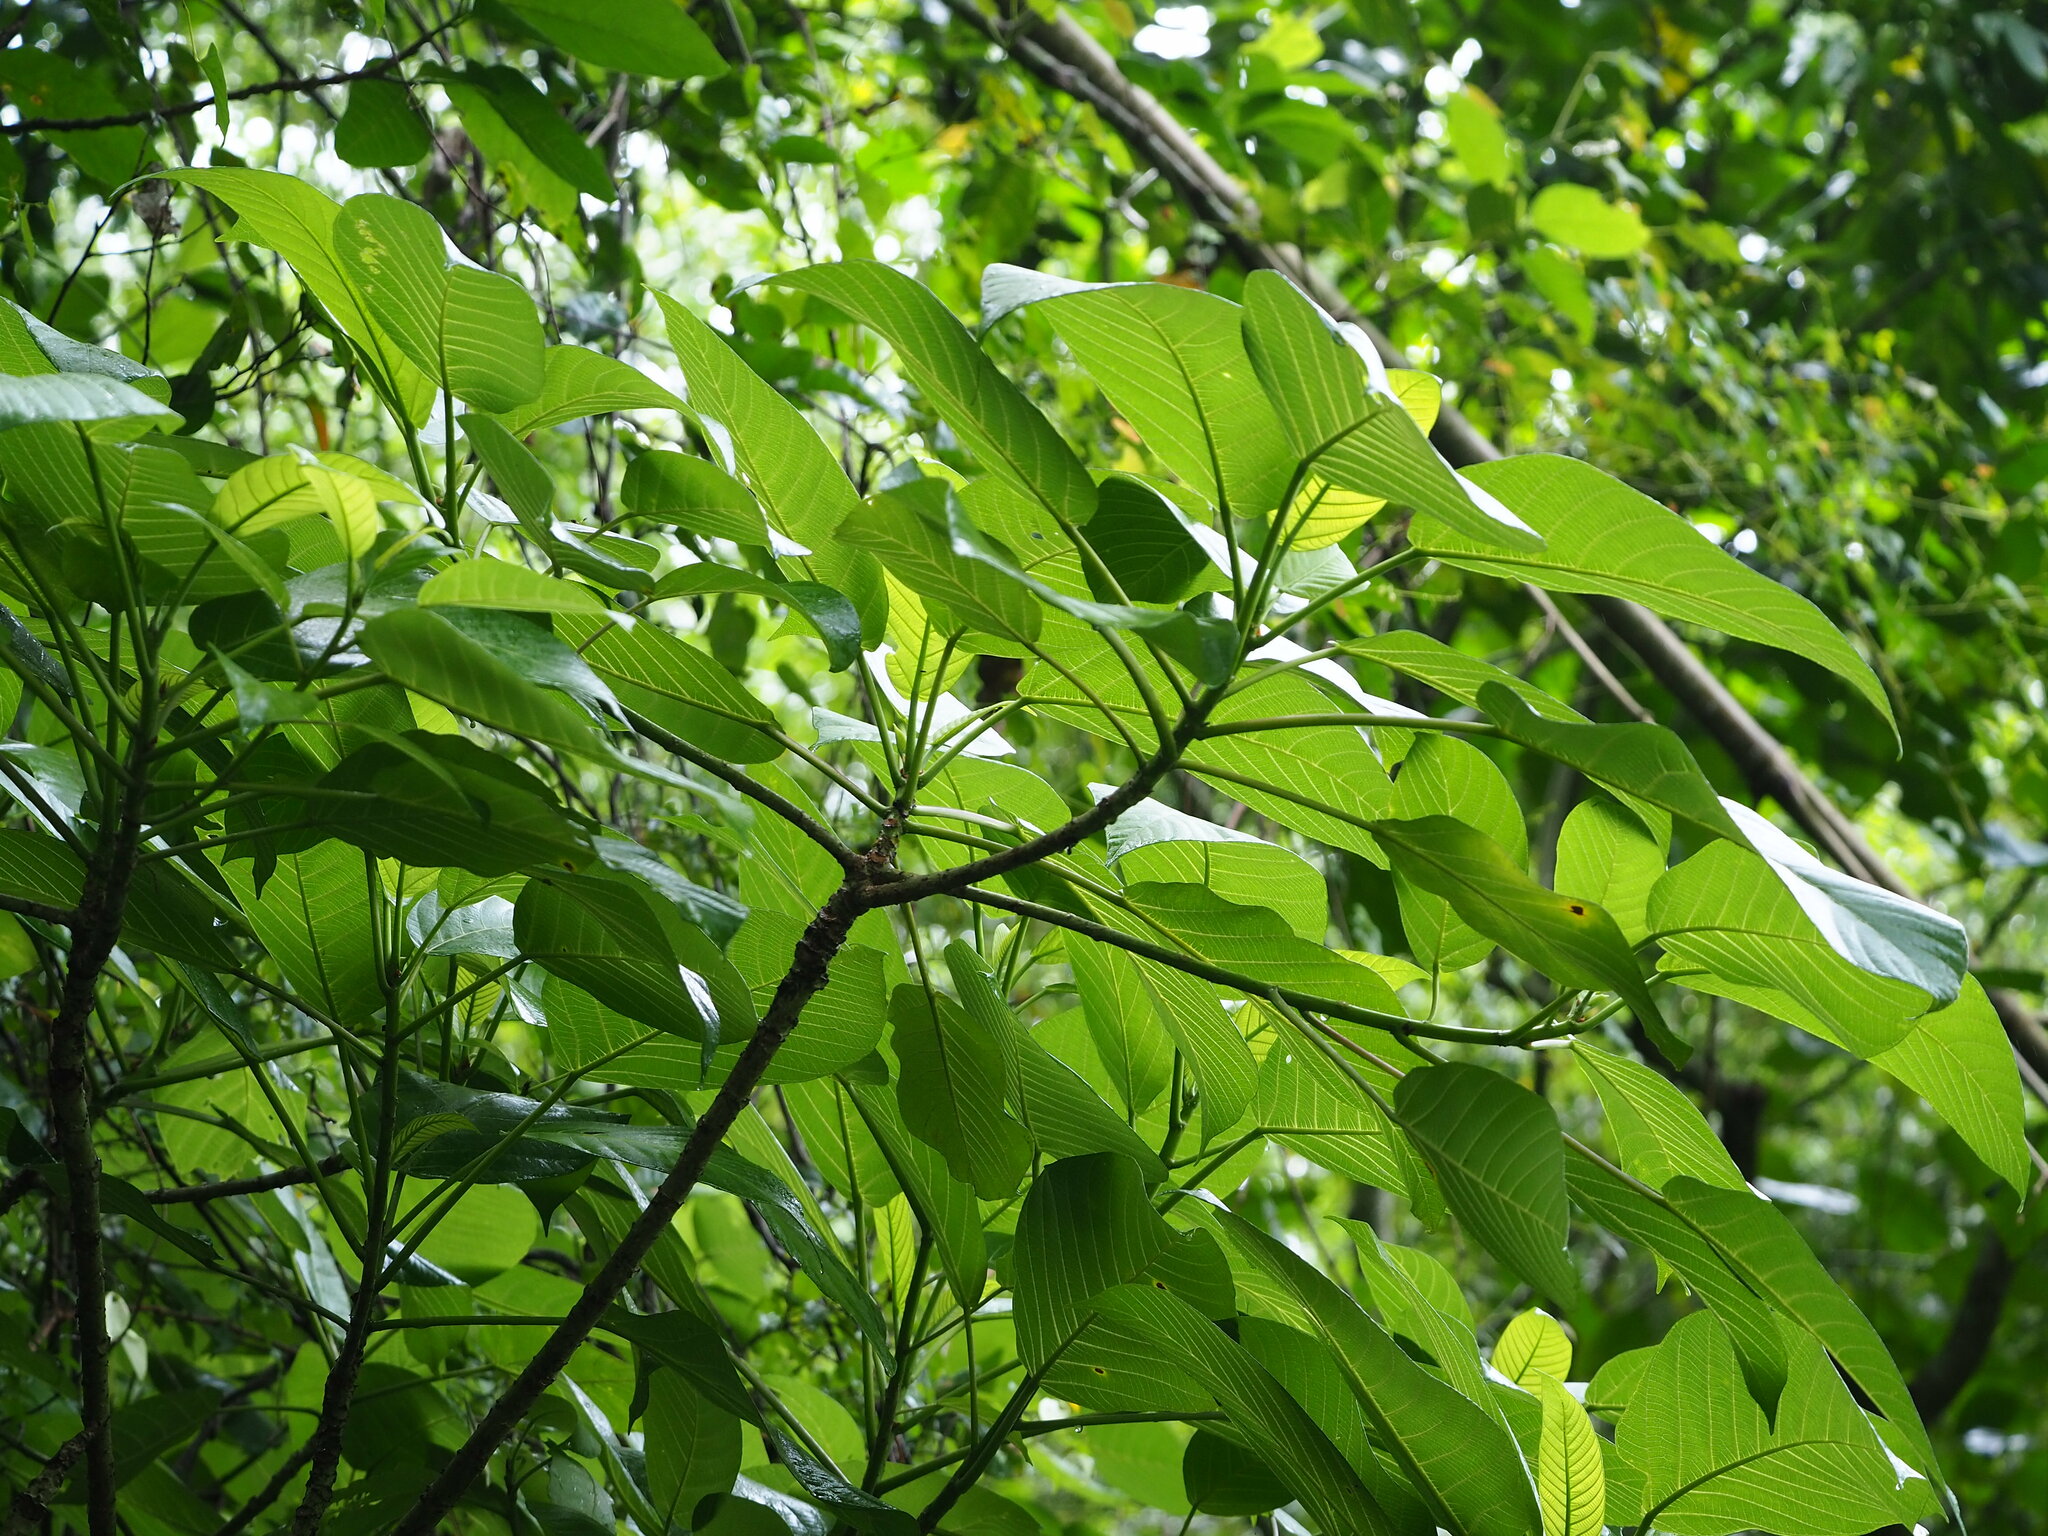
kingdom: Plantae
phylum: Tracheophyta
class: Magnoliopsida
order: Rosales
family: Urticaceae
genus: Dendrocnide
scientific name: Dendrocnide meyeniana
